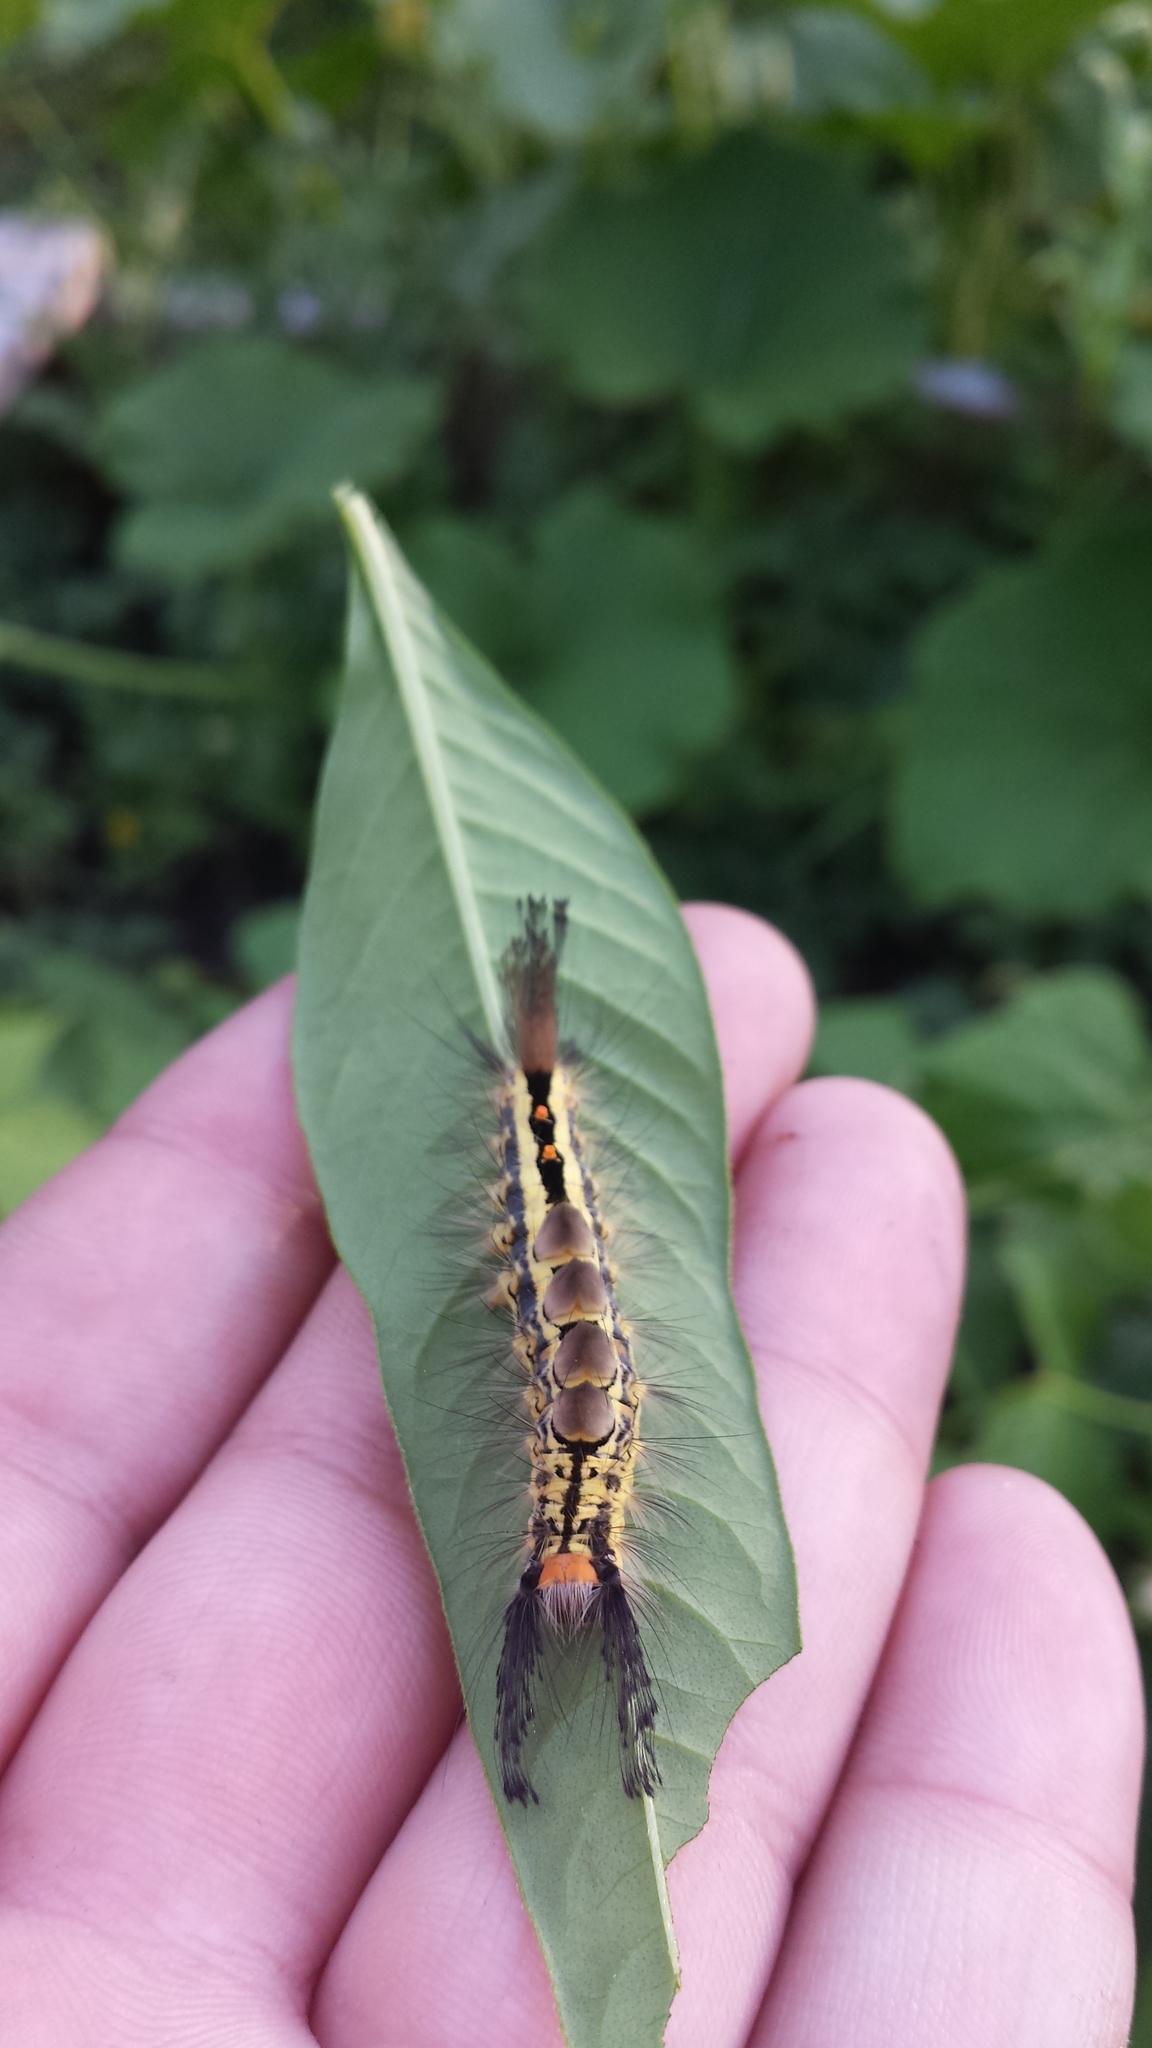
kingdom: Animalia
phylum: Arthropoda
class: Insecta
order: Lepidoptera
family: Erebidae
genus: Orgyia
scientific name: Orgyia leucostigma
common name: White-marked tussock moth
